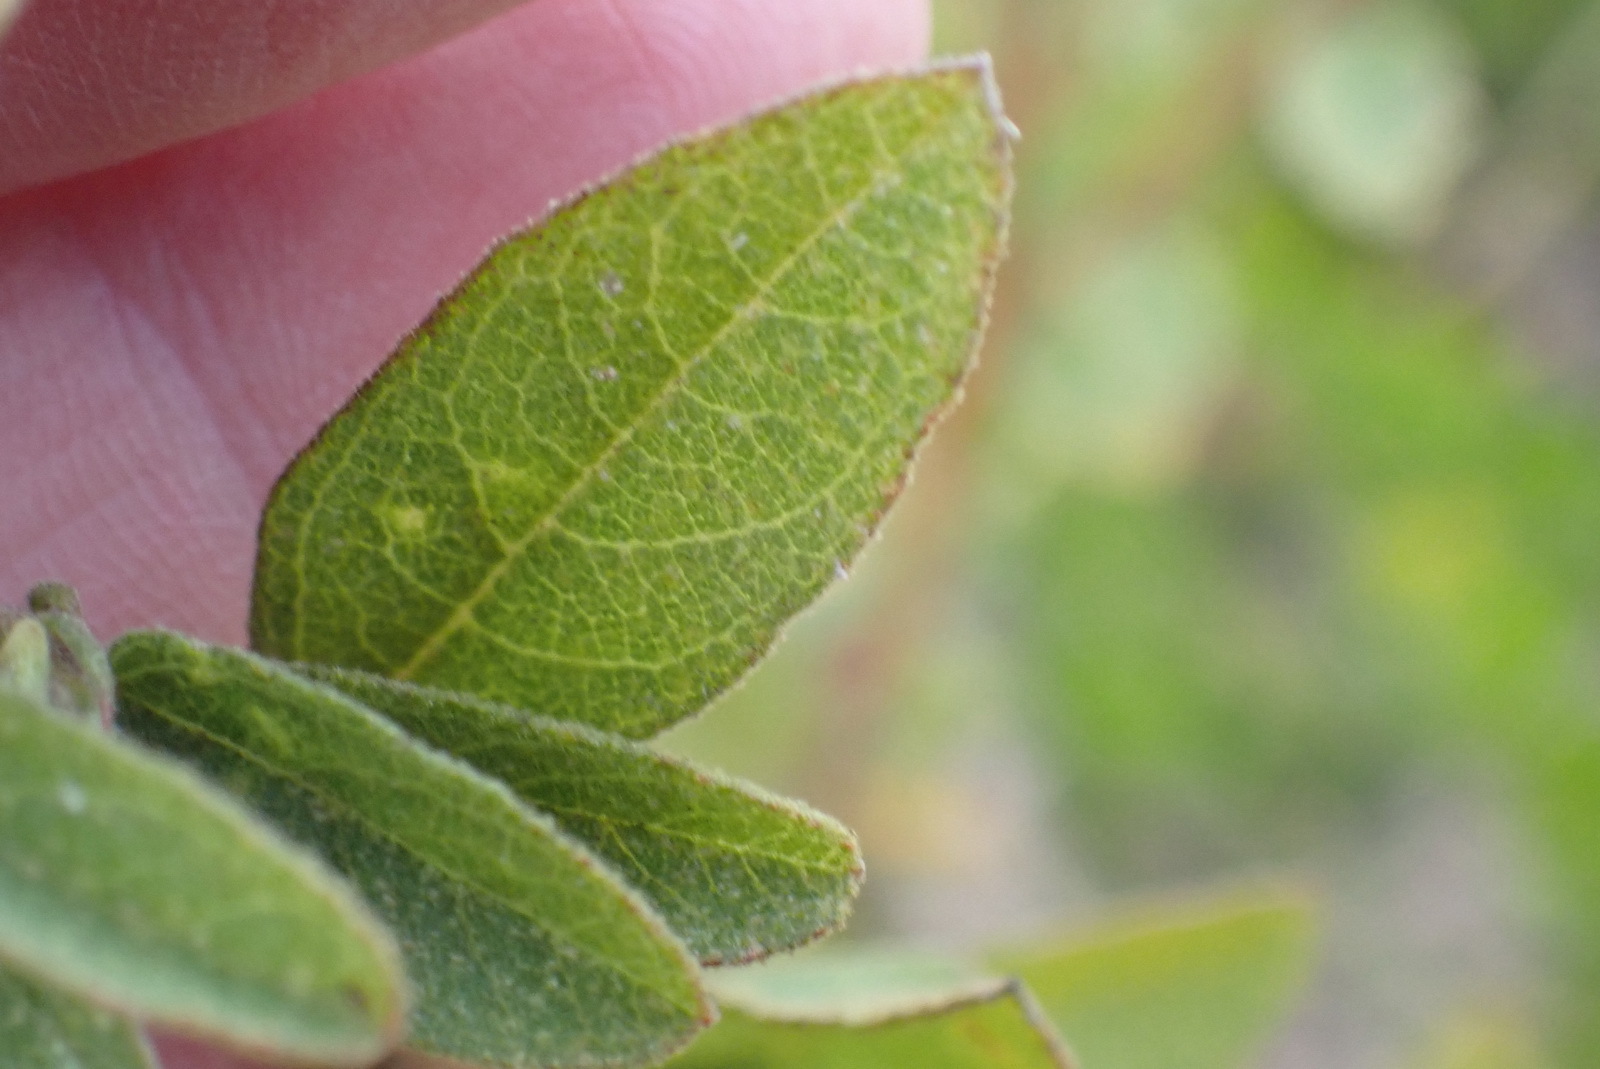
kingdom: Plantae
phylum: Tracheophyta
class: Magnoliopsida
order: Malvales
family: Malvaceae
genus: Hermannia
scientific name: Hermannia salviifolia
